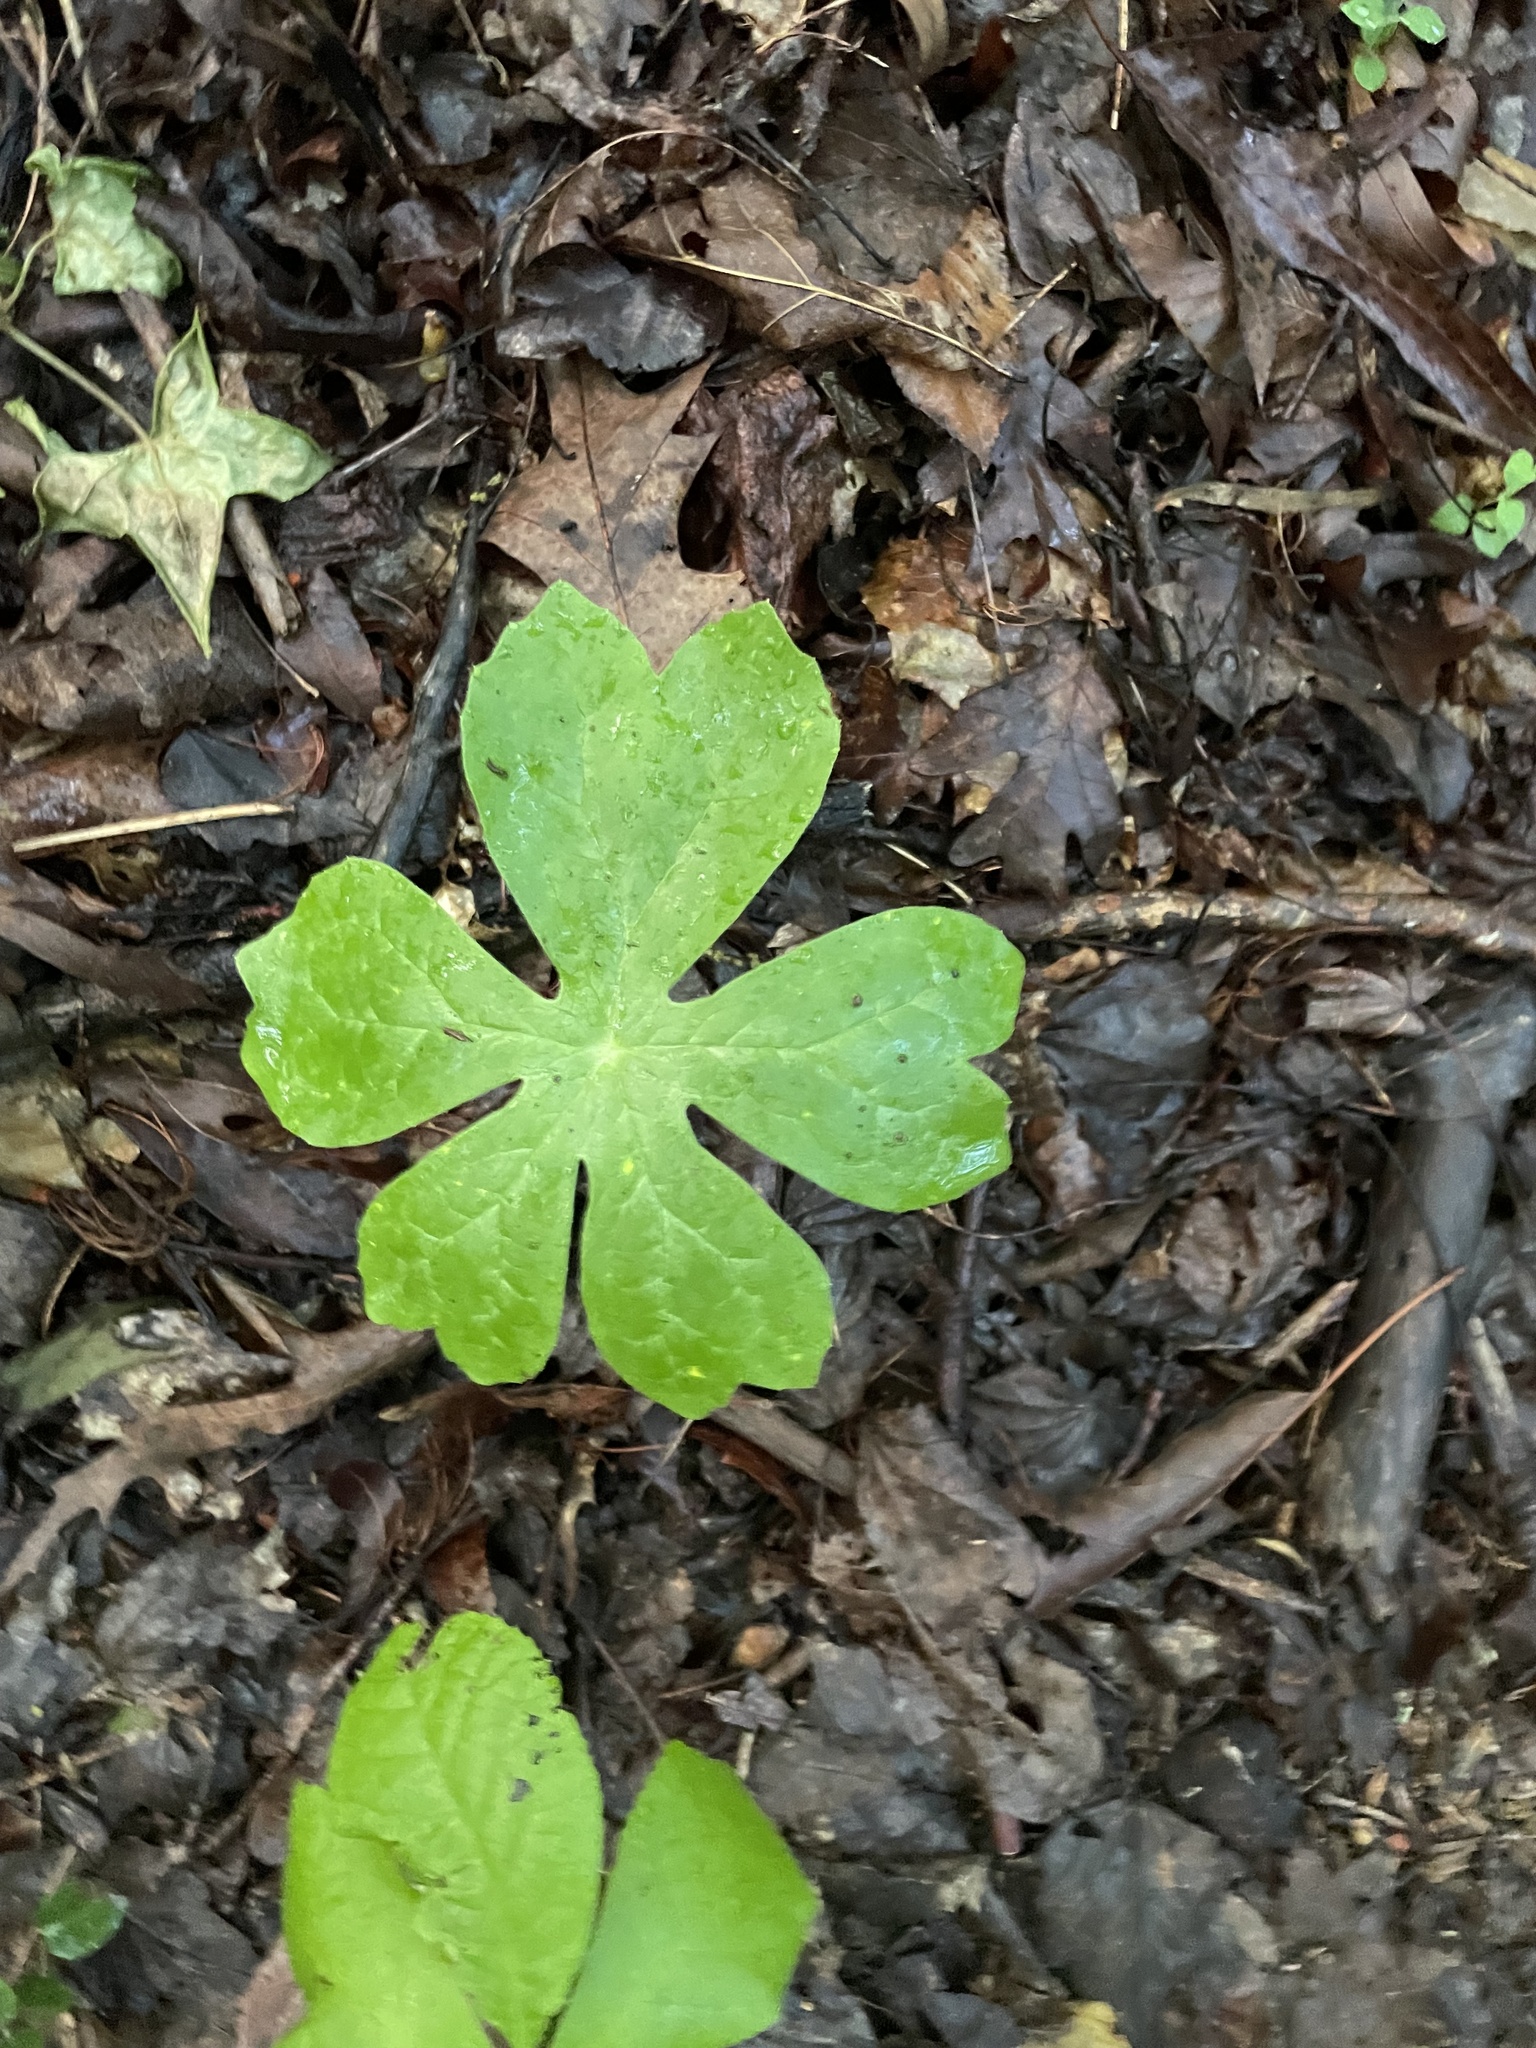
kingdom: Plantae
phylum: Tracheophyta
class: Magnoliopsida
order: Ranunculales
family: Berberidaceae
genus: Podophyllum
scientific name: Podophyllum peltatum
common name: Wild mandrake
